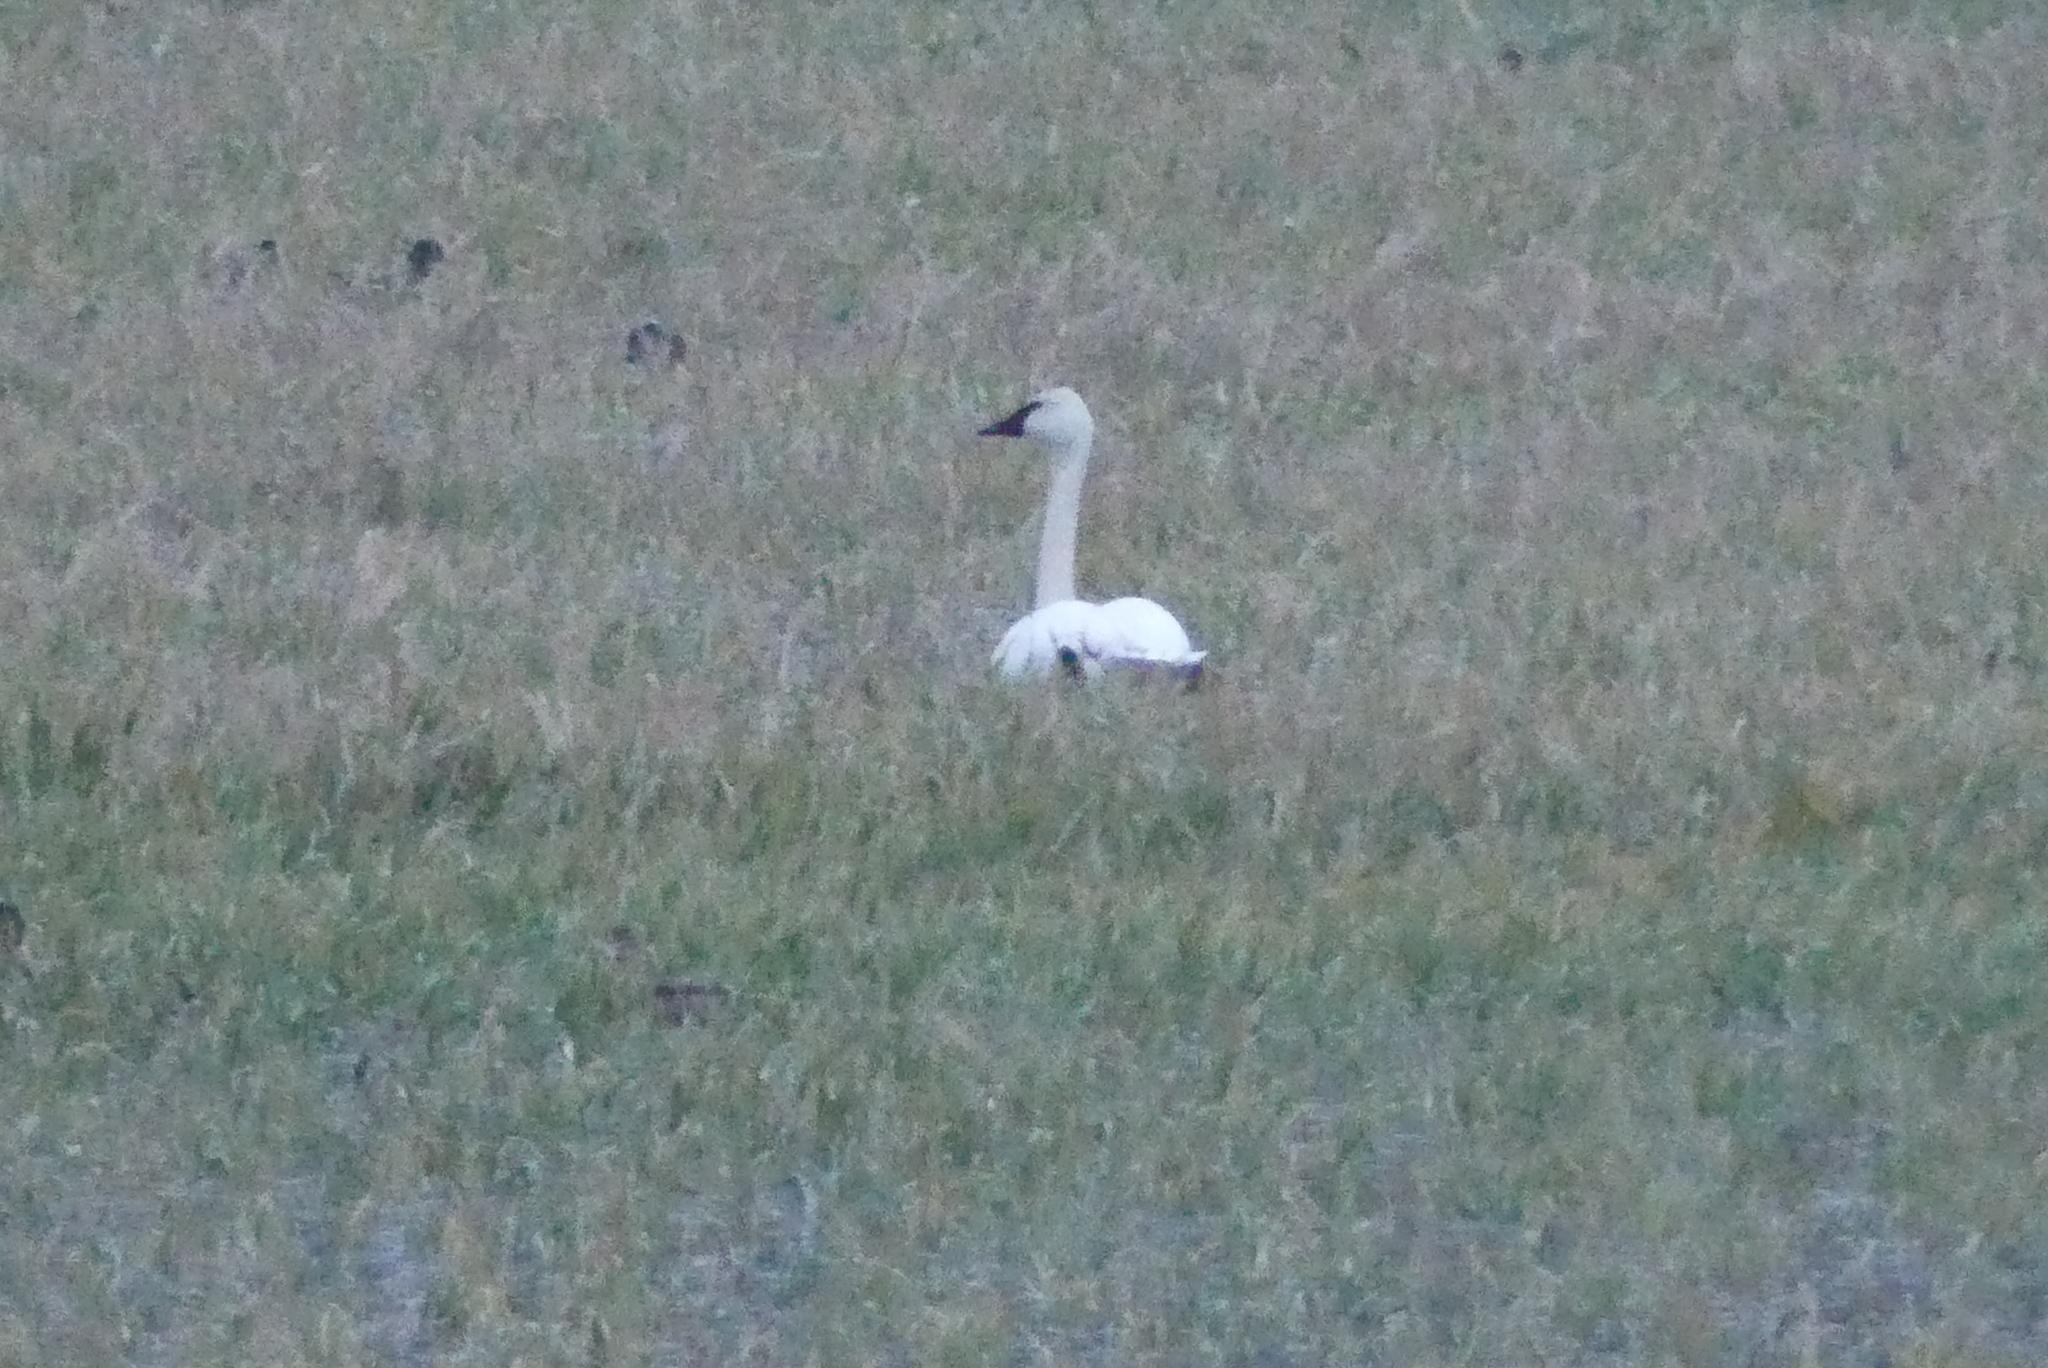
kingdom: Animalia
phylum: Chordata
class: Aves
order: Anseriformes
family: Anatidae
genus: Cygnus
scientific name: Cygnus buccinator
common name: Trumpeter swan
